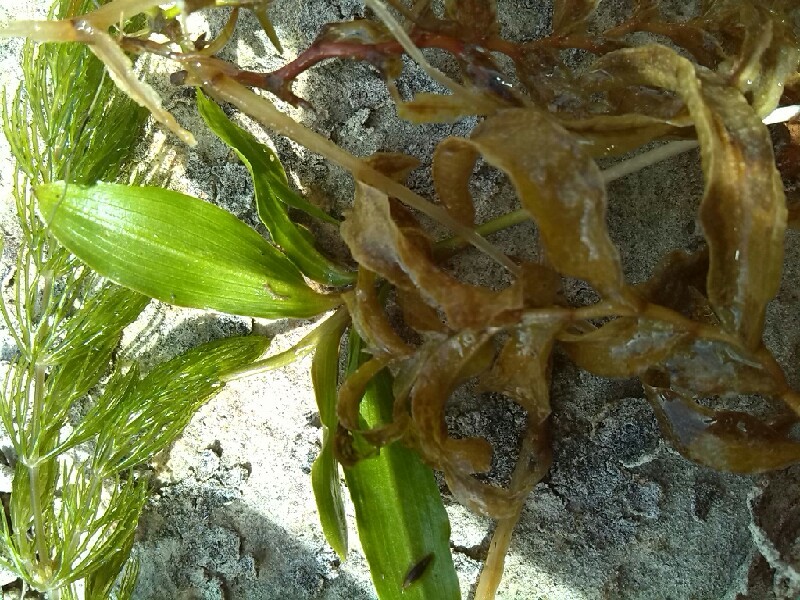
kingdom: Animalia
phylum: Mollusca
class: Bivalvia
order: Myida
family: Dreissenidae
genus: Dreissena
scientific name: Dreissena polymorpha
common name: Zebra mussel
